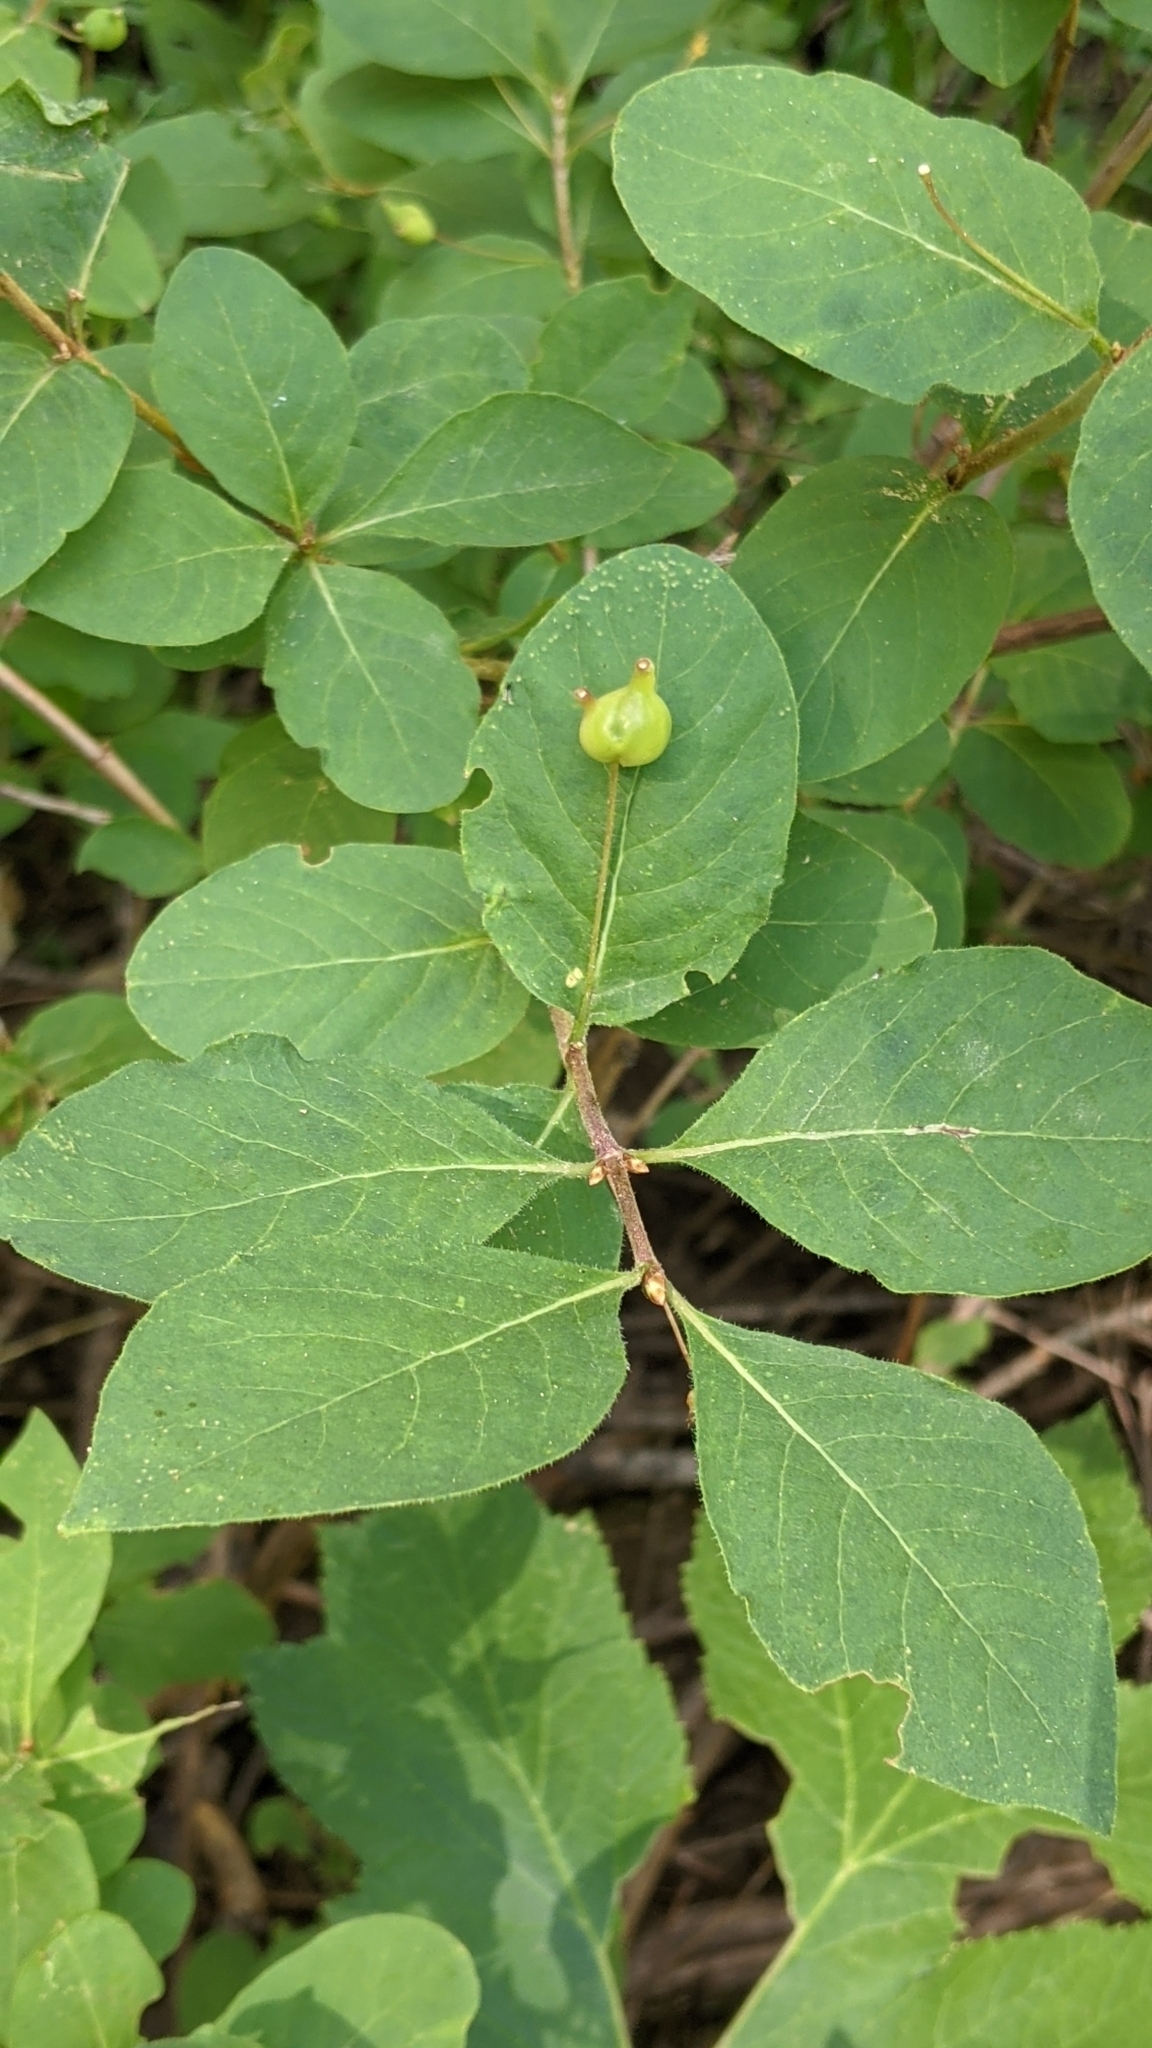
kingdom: Plantae
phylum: Tracheophyta
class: Magnoliopsida
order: Dipsacales
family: Caprifoliaceae
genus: Lonicera
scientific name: Lonicera conjugialis
